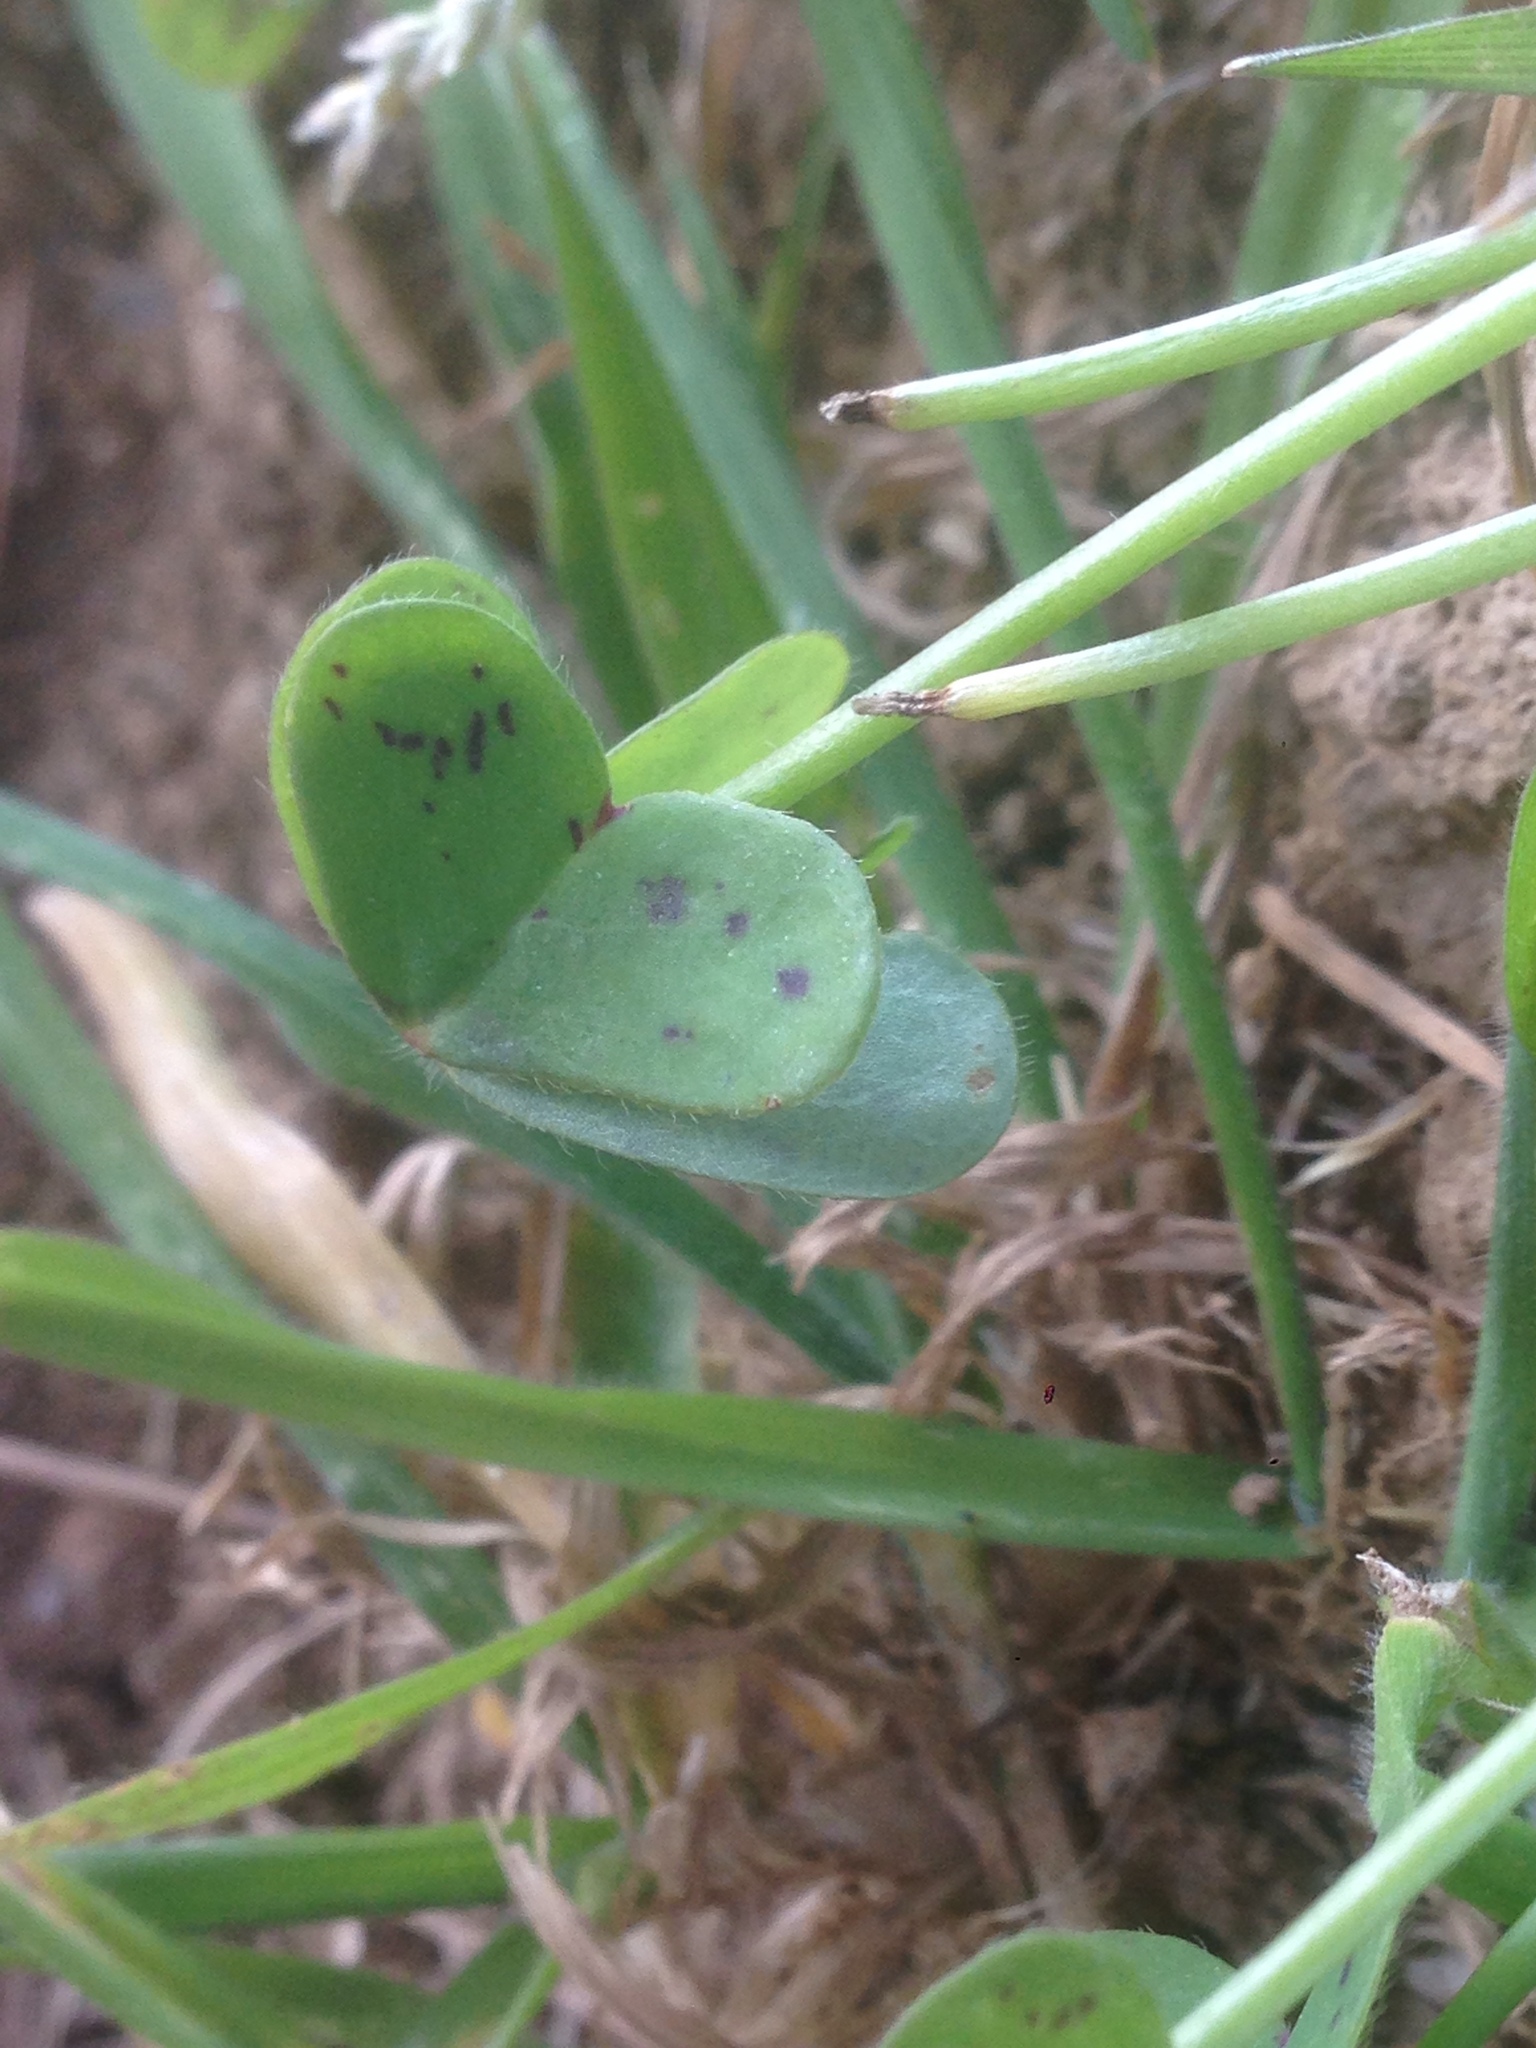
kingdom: Plantae
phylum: Tracheophyta
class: Magnoliopsida
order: Oxalidales
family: Oxalidaceae
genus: Oxalis
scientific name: Oxalis pes-caprae
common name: Bermuda-buttercup
